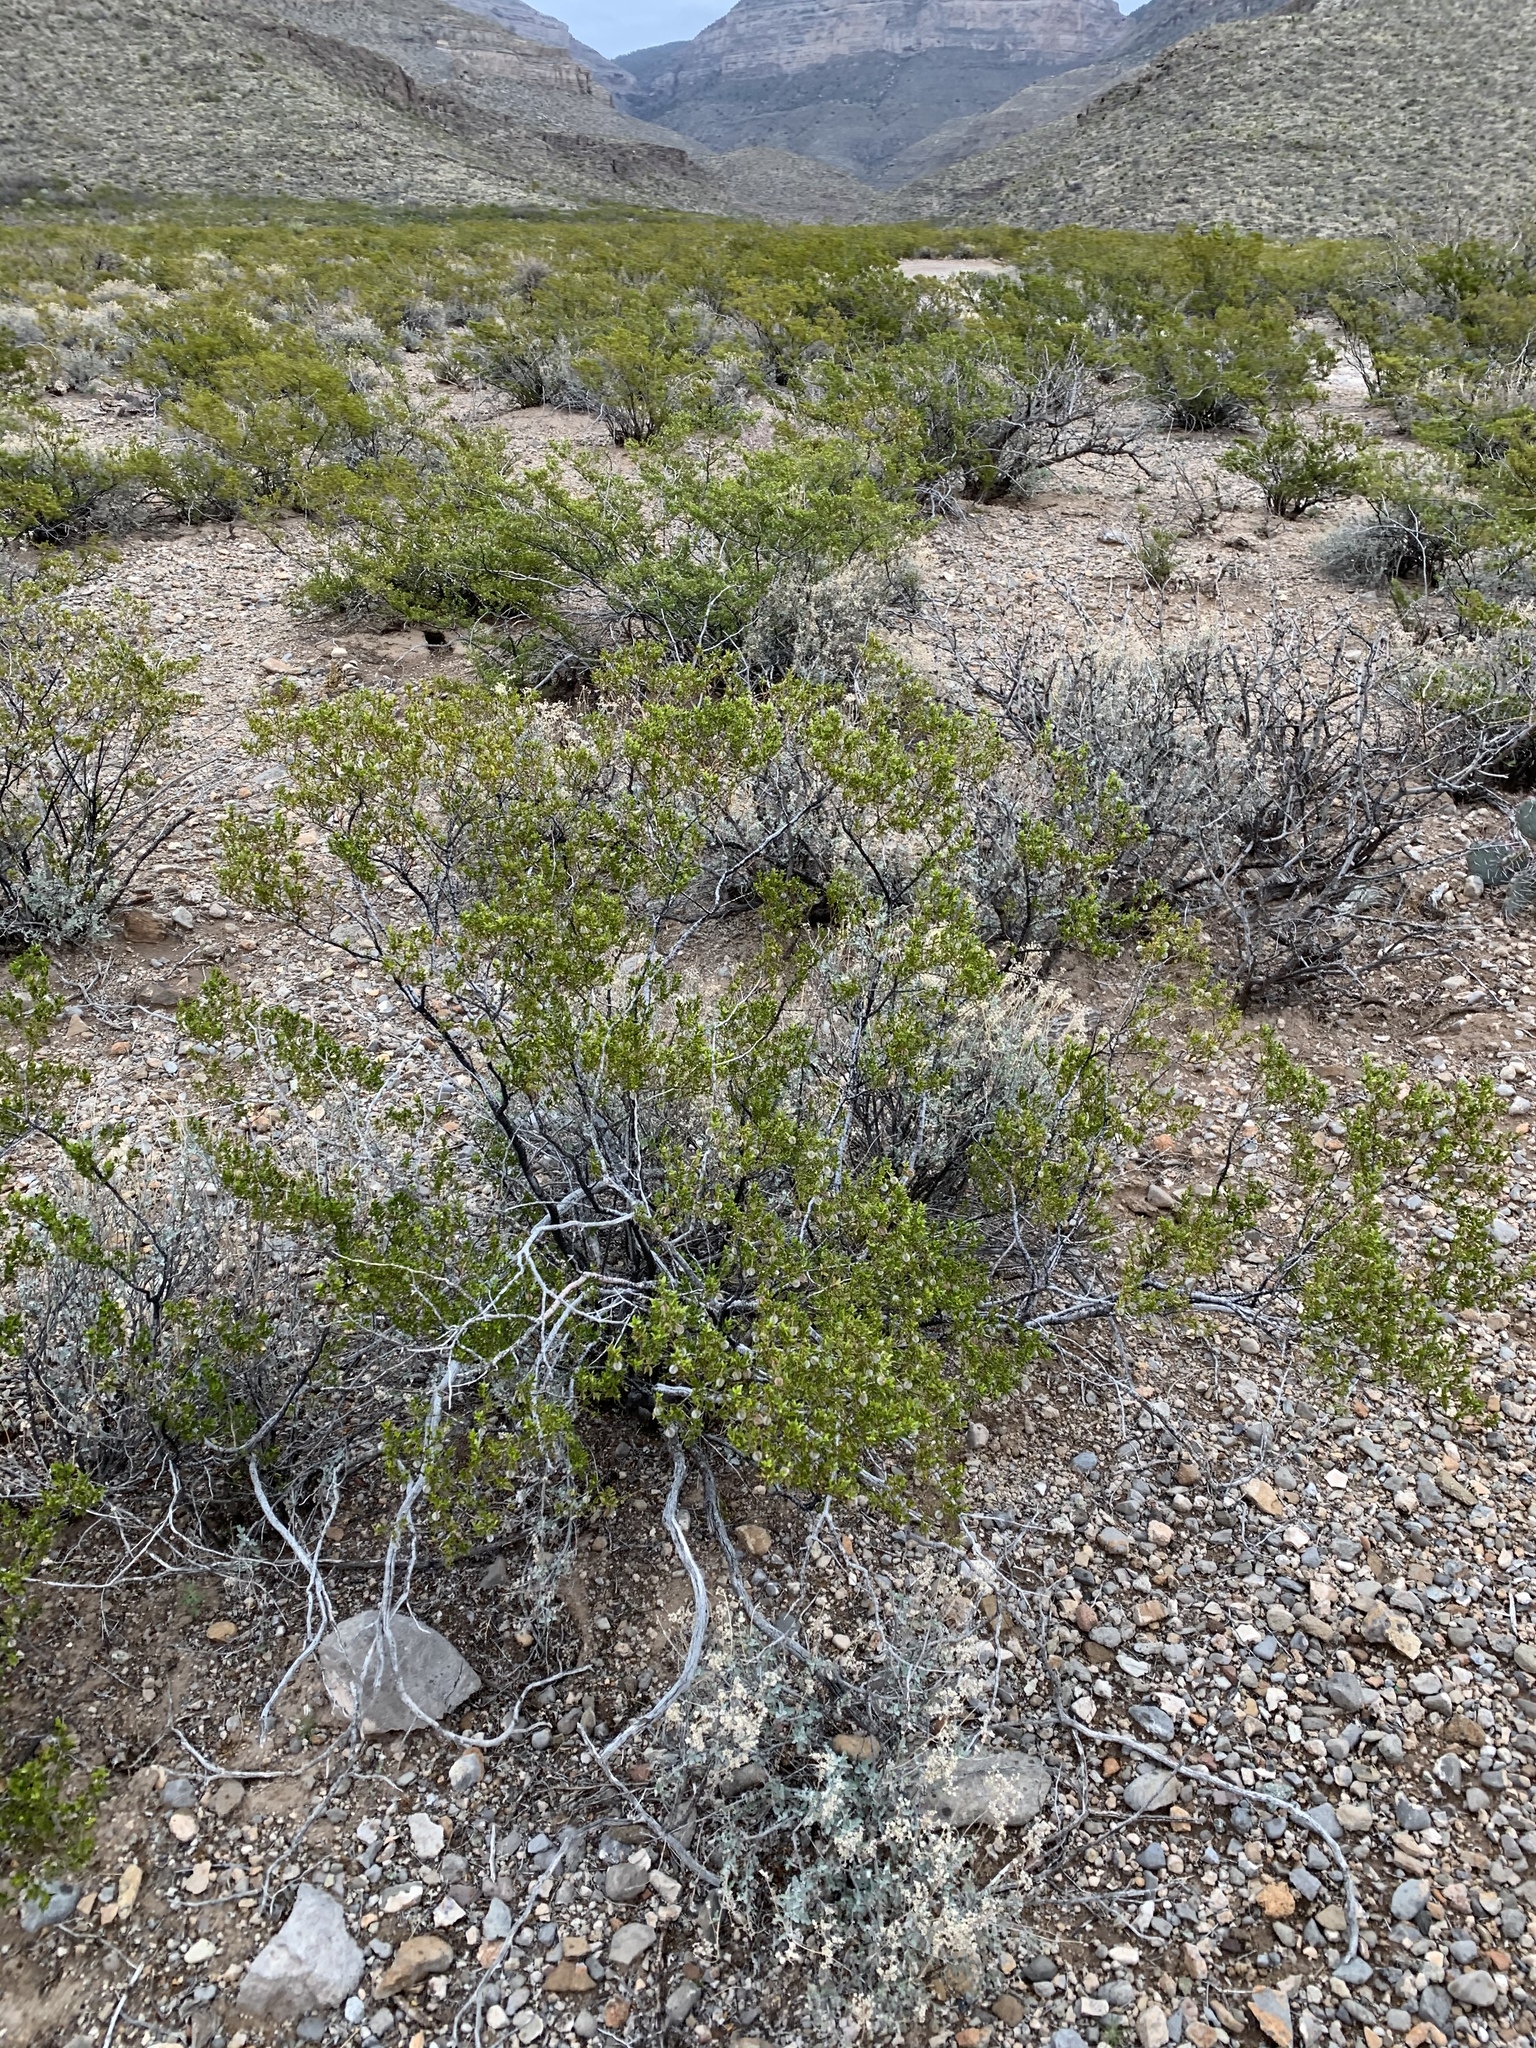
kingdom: Plantae
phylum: Tracheophyta
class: Magnoliopsida
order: Zygophyllales
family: Zygophyllaceae
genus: Larrea
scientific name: Larrea tridentata
